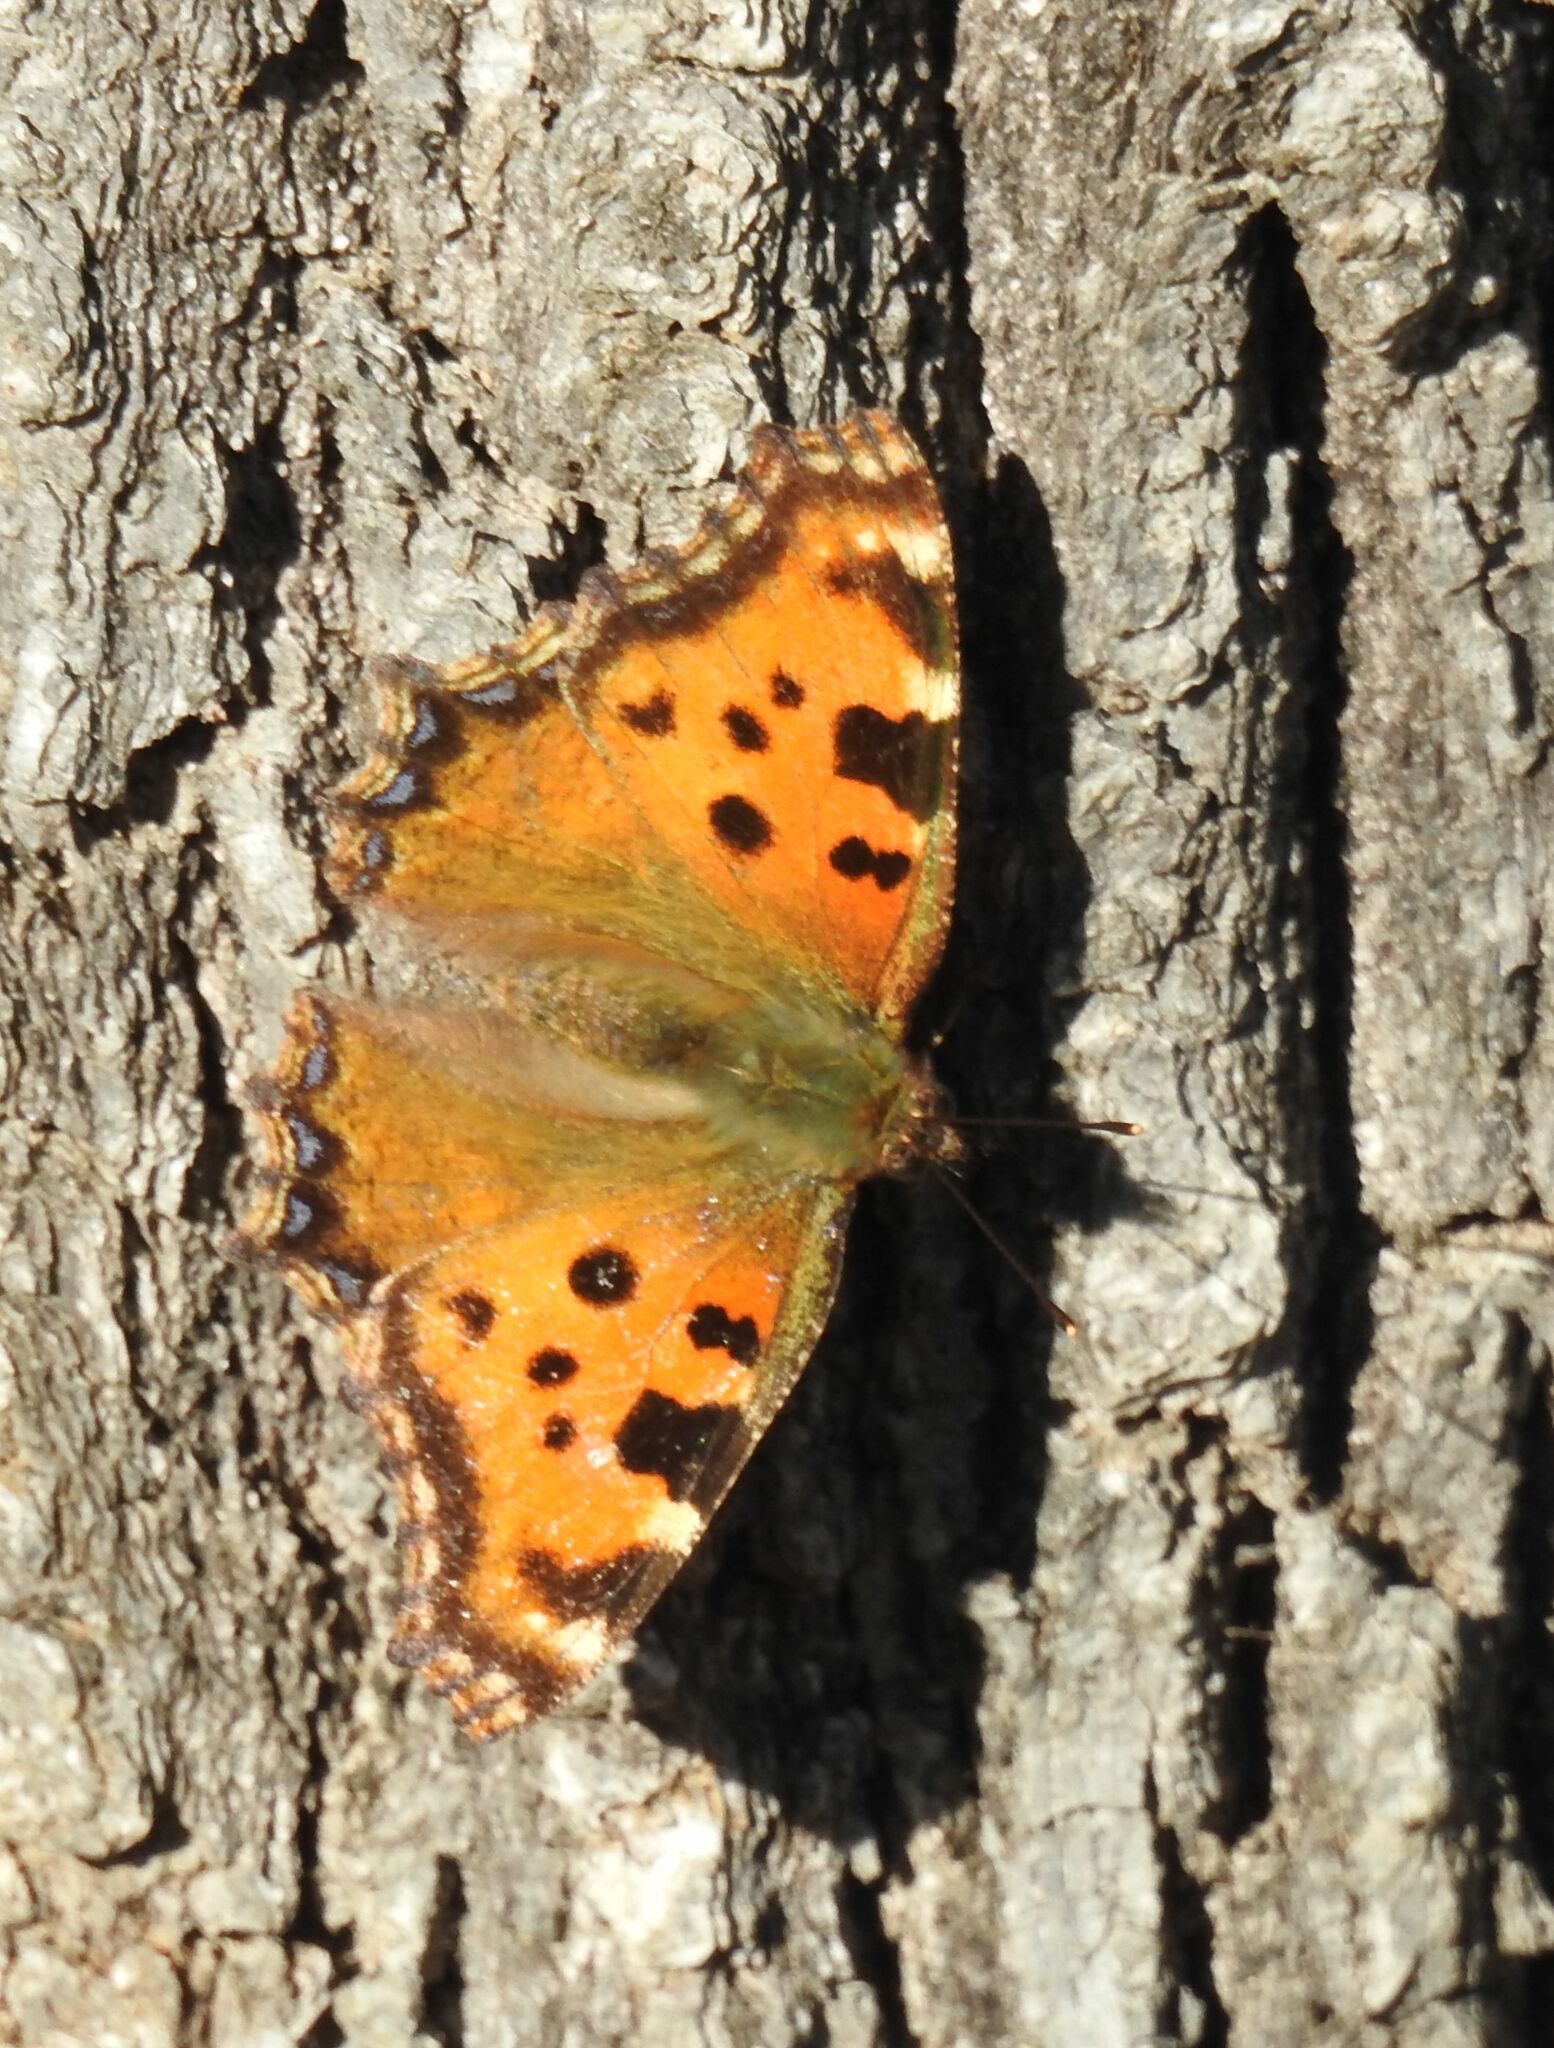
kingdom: Animalia
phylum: Arthropoda
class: Insecta
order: Lepidoptera
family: Nymphalidae
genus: Nymphalis
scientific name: Nymphalis polychloros
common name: Large tortoiseshell
